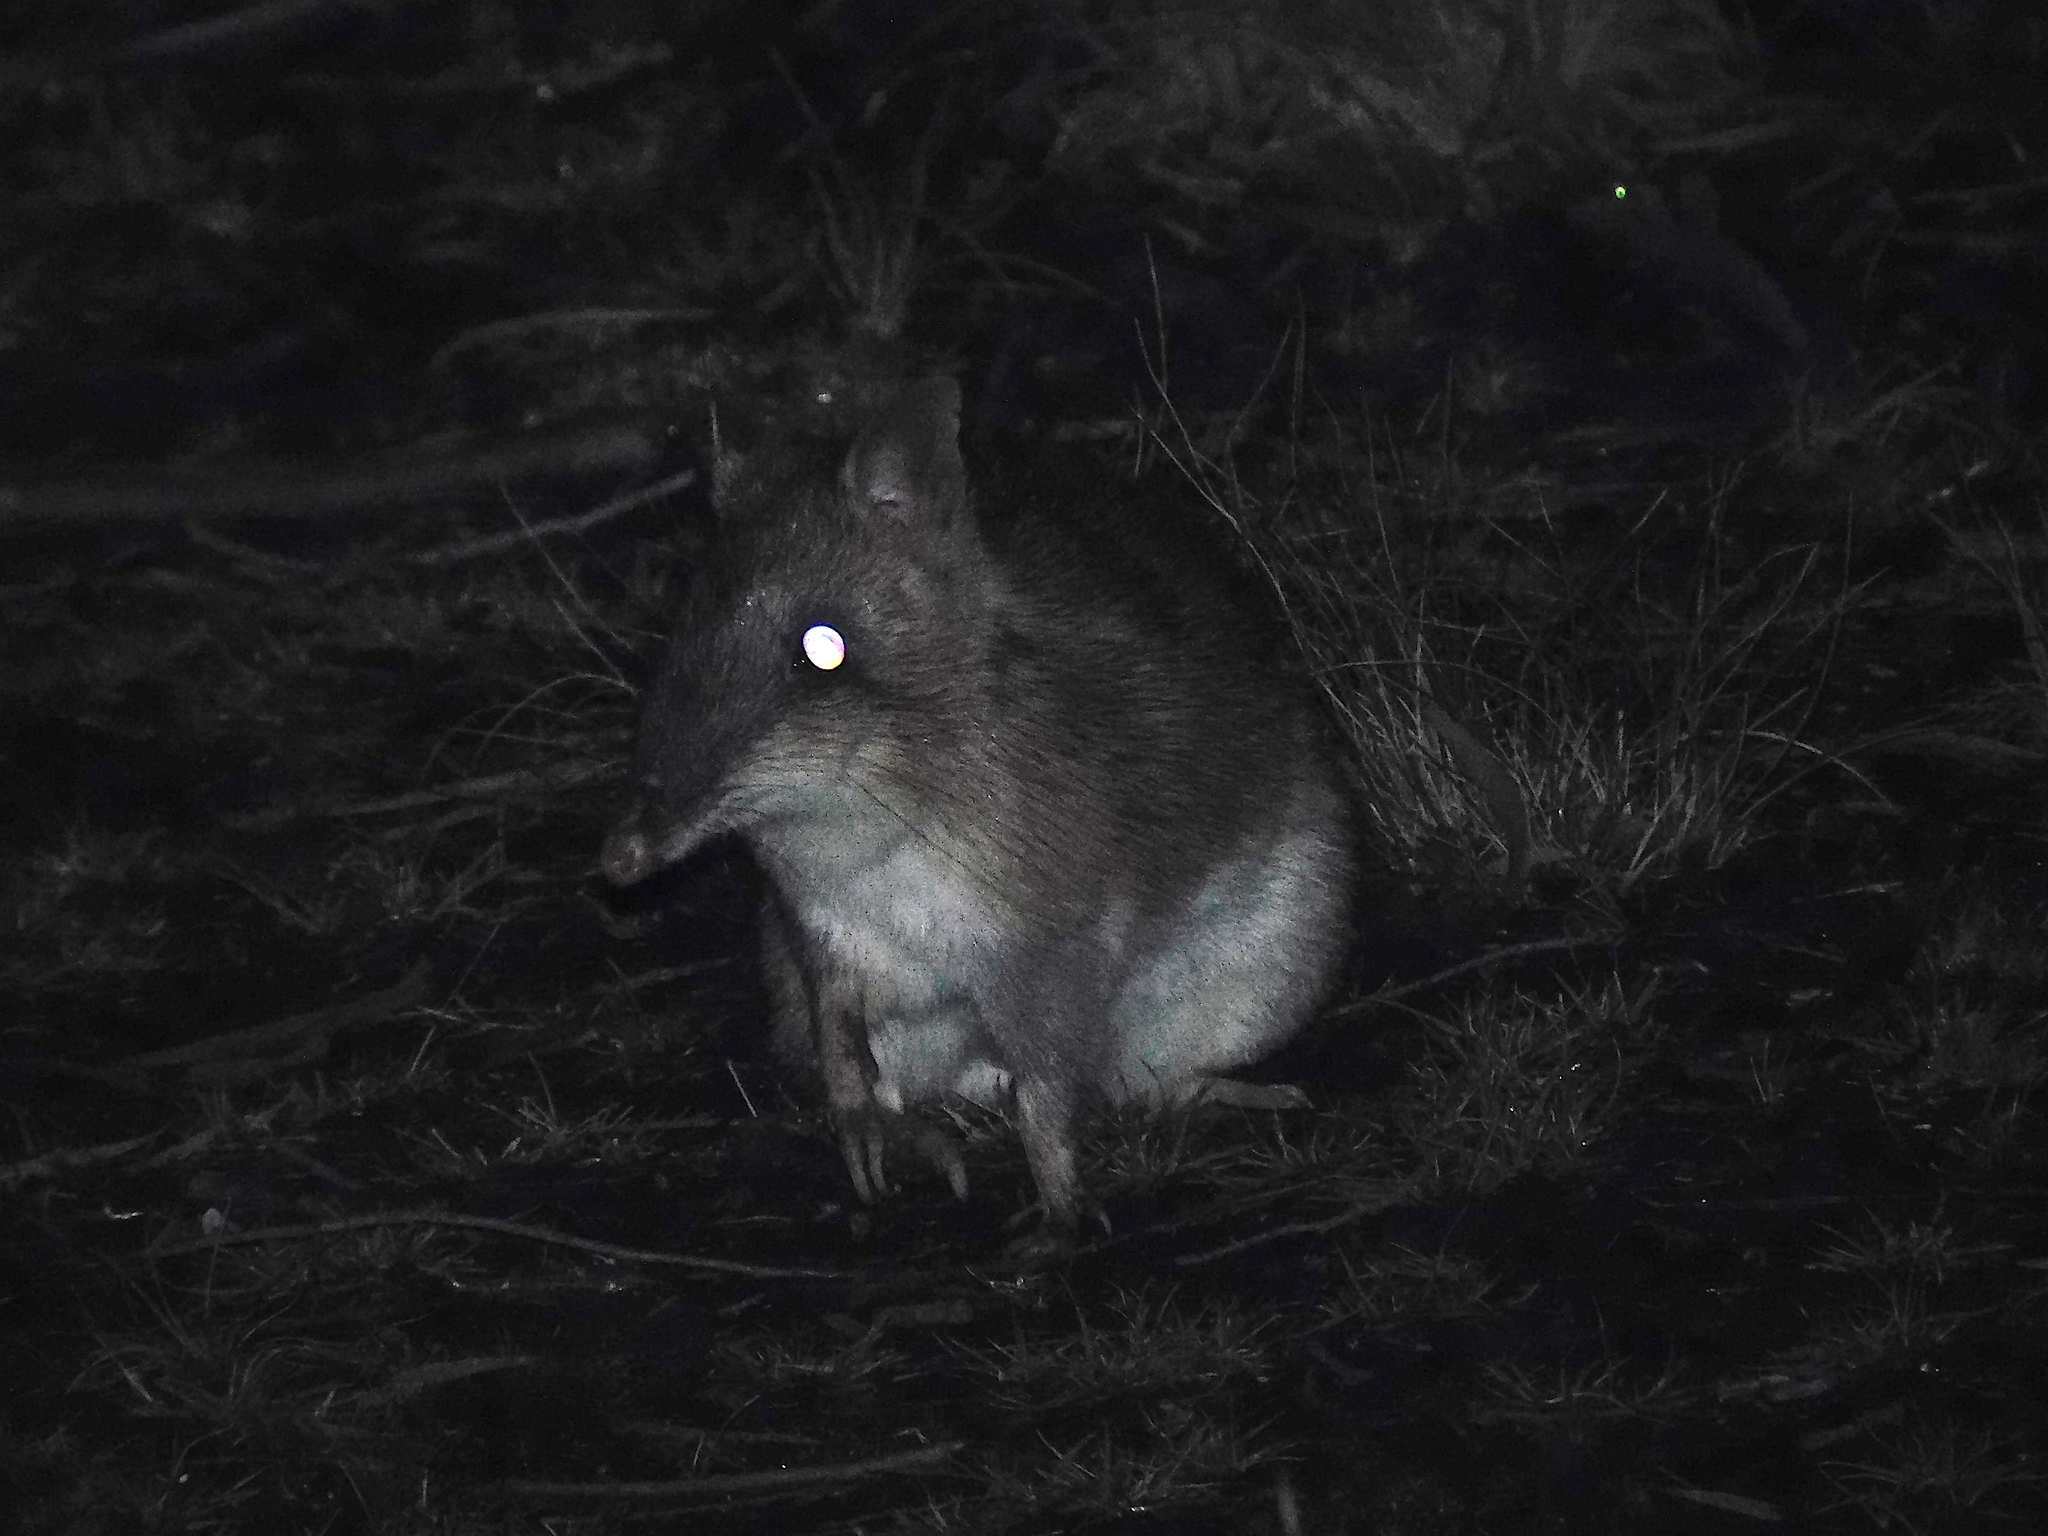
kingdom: Animalia
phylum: Chordata
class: Mammalia
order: Peramelemorphia
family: Peramelidae
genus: Perameles
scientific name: Perameles gunnii
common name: Eastern barred bandicoot
